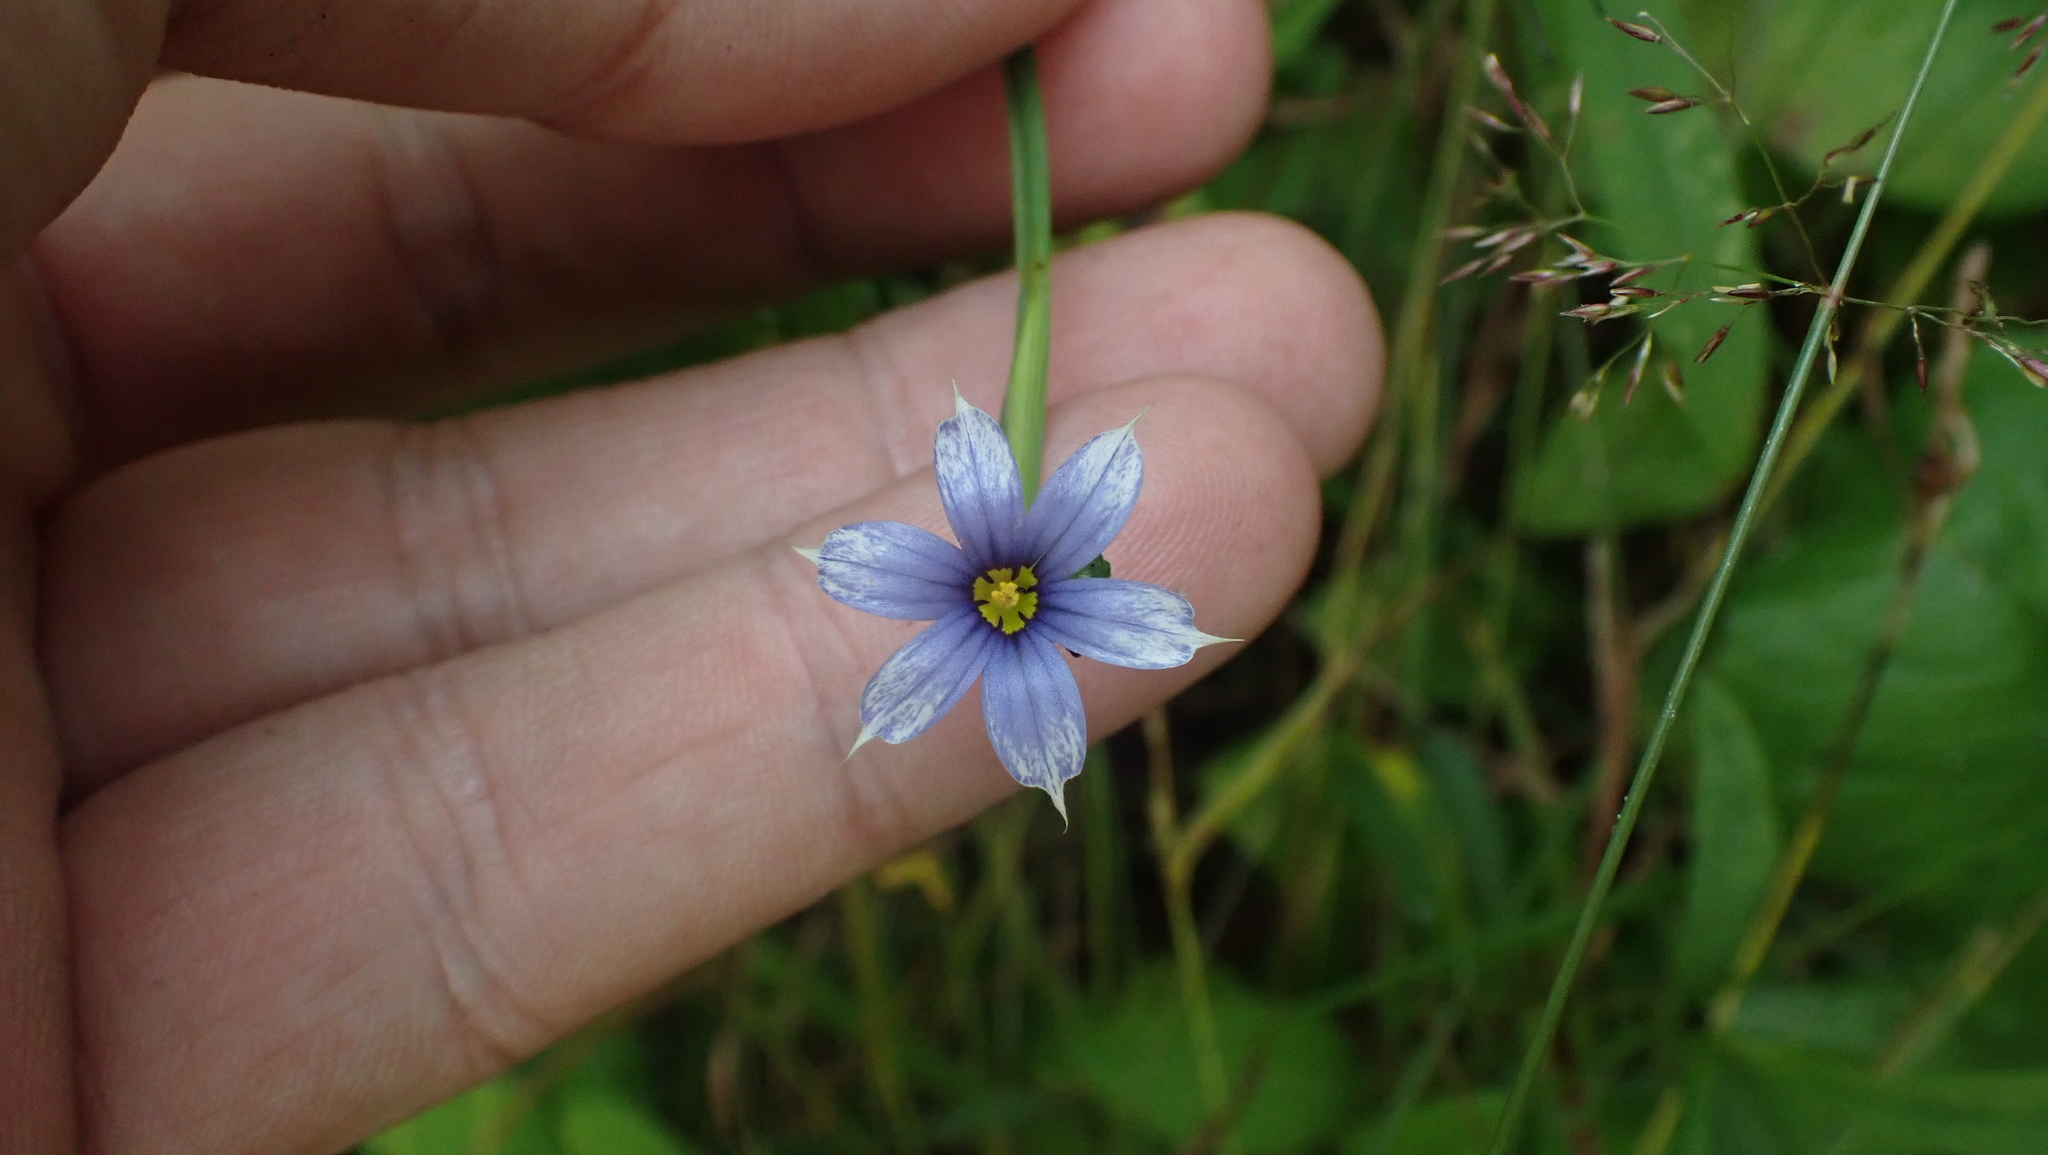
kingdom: Plantae
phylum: Tracheophyta
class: Liliopsida
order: Asparagales
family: Iridaceae
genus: Sisyrinchium
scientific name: Sisyrinchium angustifolium
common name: Narrow-leaf blue-eyed-grass
